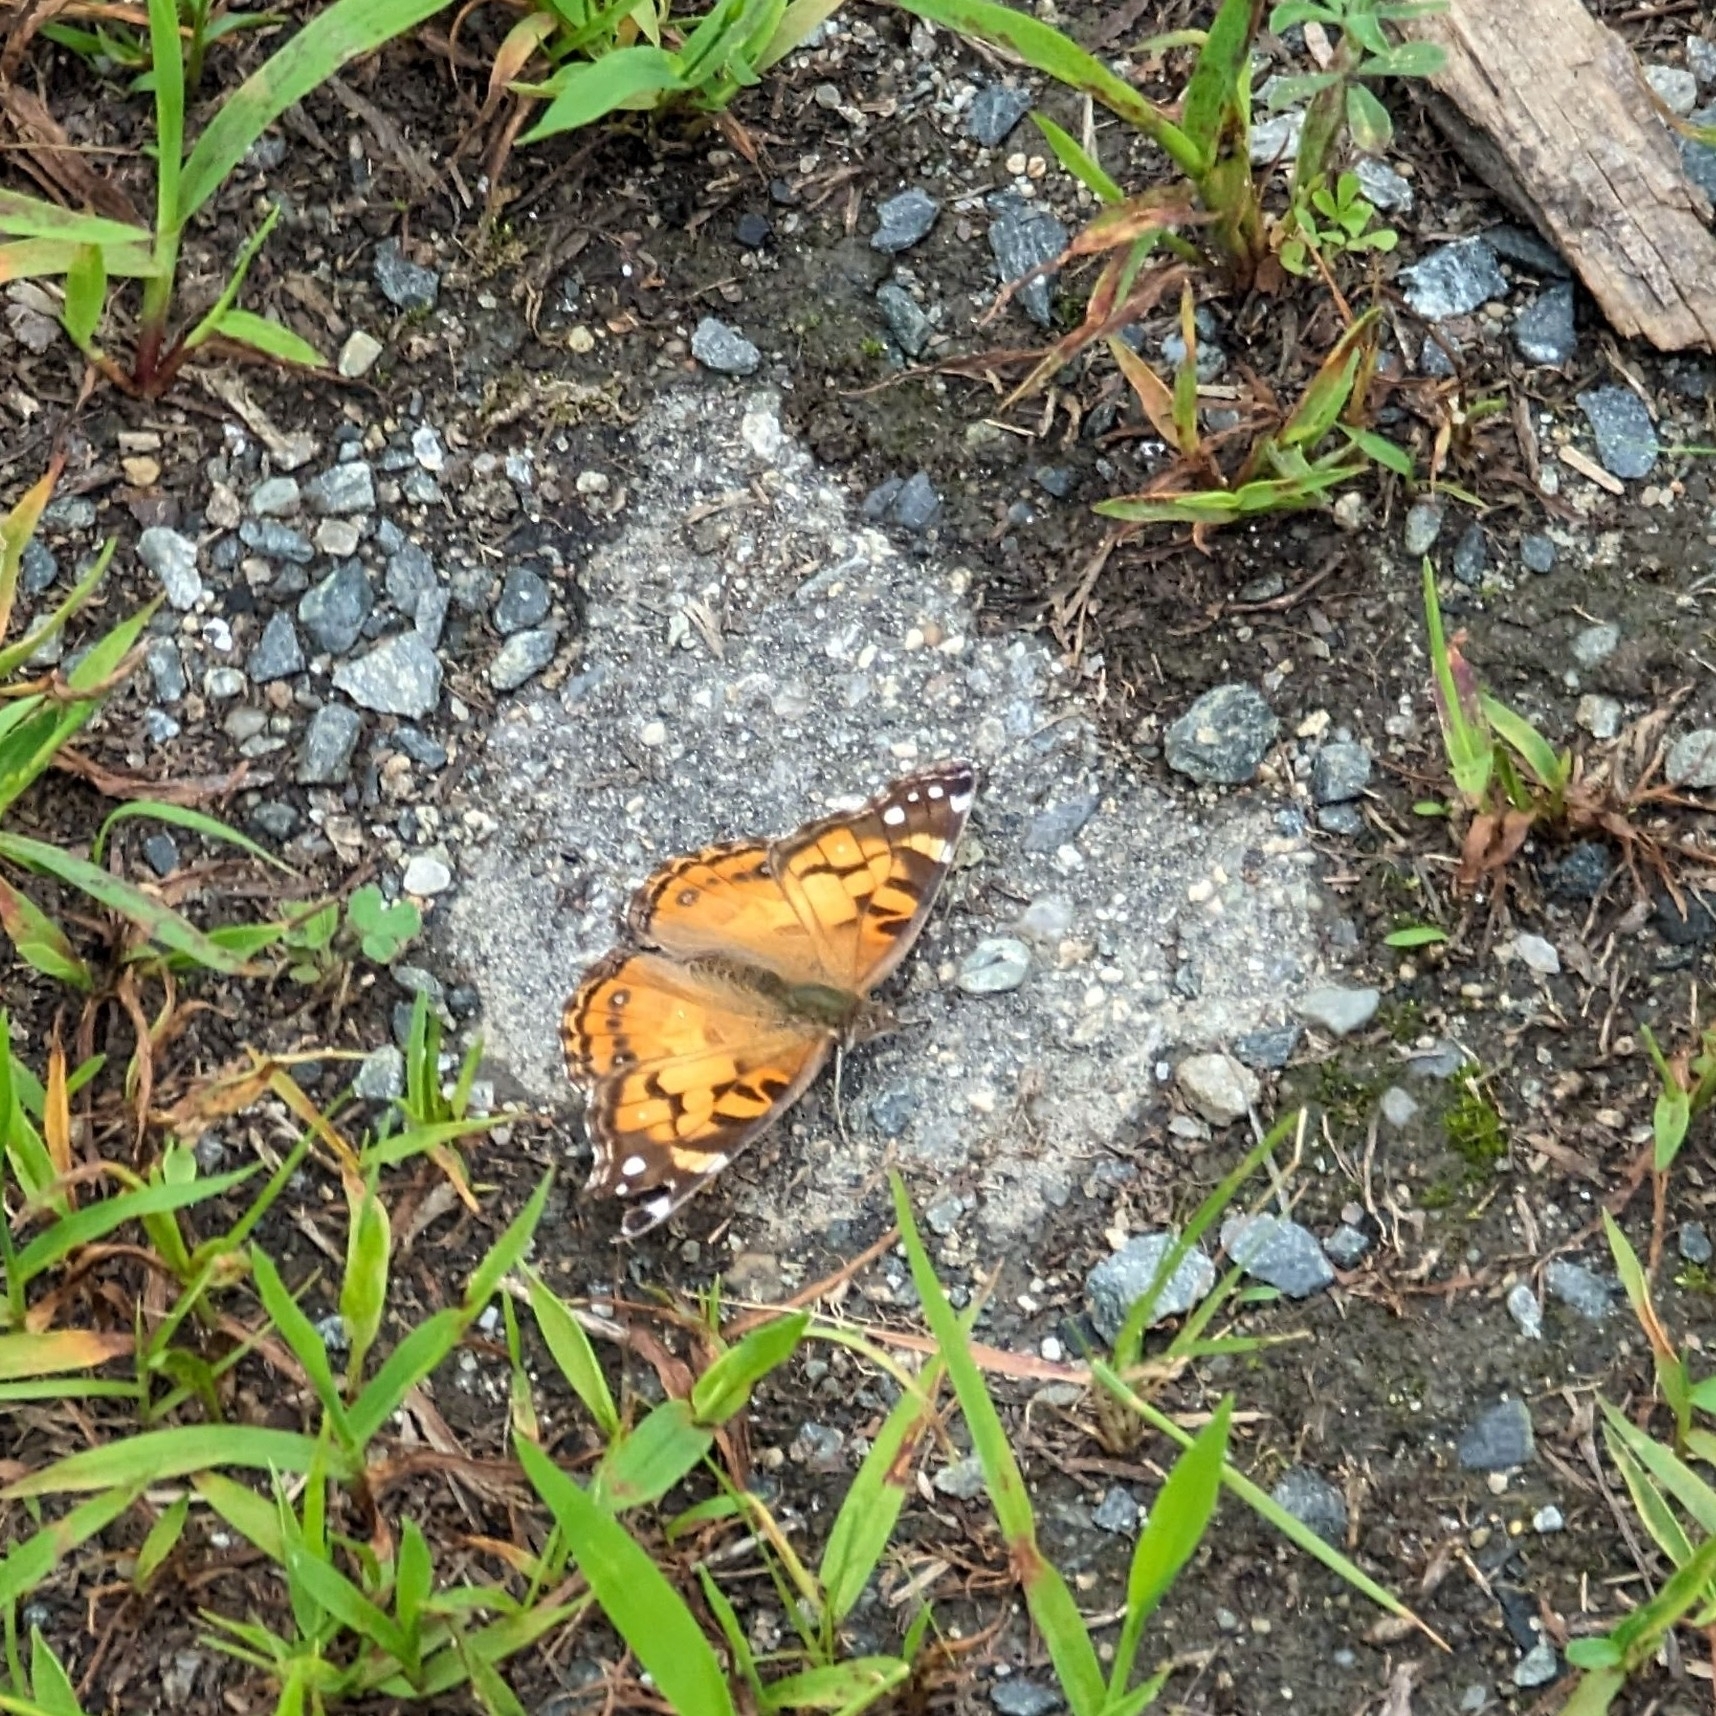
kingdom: Animalia
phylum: Arthropoda
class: Insecta
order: Lepidoptera
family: Nymphalidae
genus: Vanessa
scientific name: Vanessa virginiensis
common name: American lady
